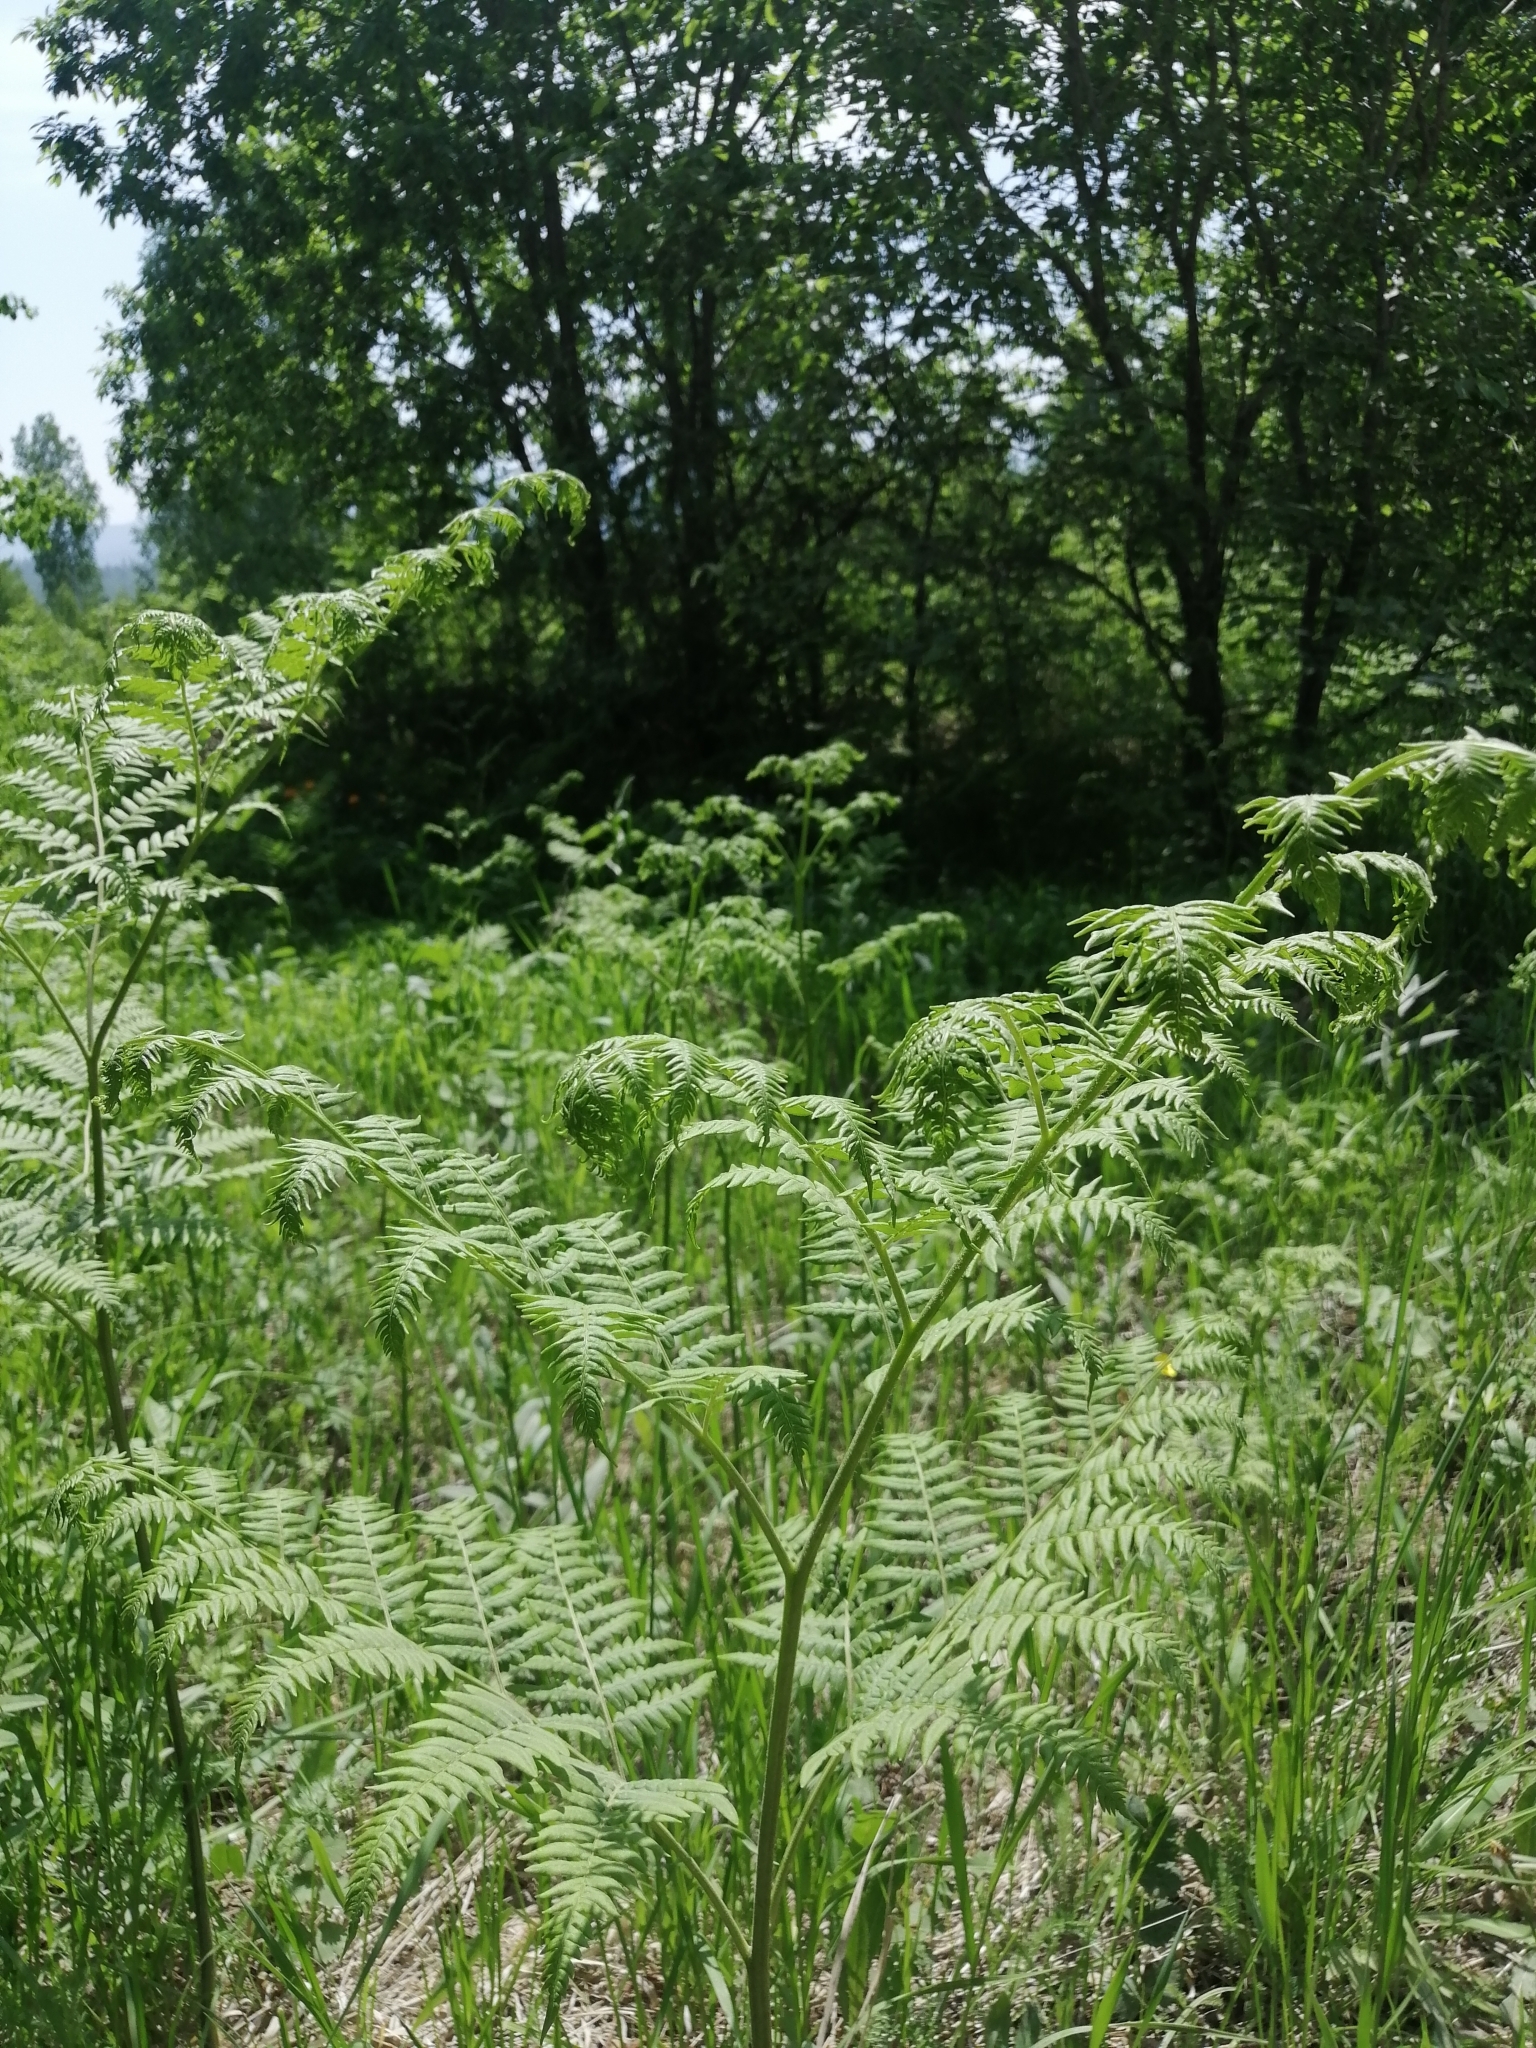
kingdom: Plantae
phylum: Tracheophyta
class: Polypodiopsida
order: Polypodiales
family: Dennstaedtiaceae
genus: Pteridium
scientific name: Pteridium aquilinum
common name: Bracken
